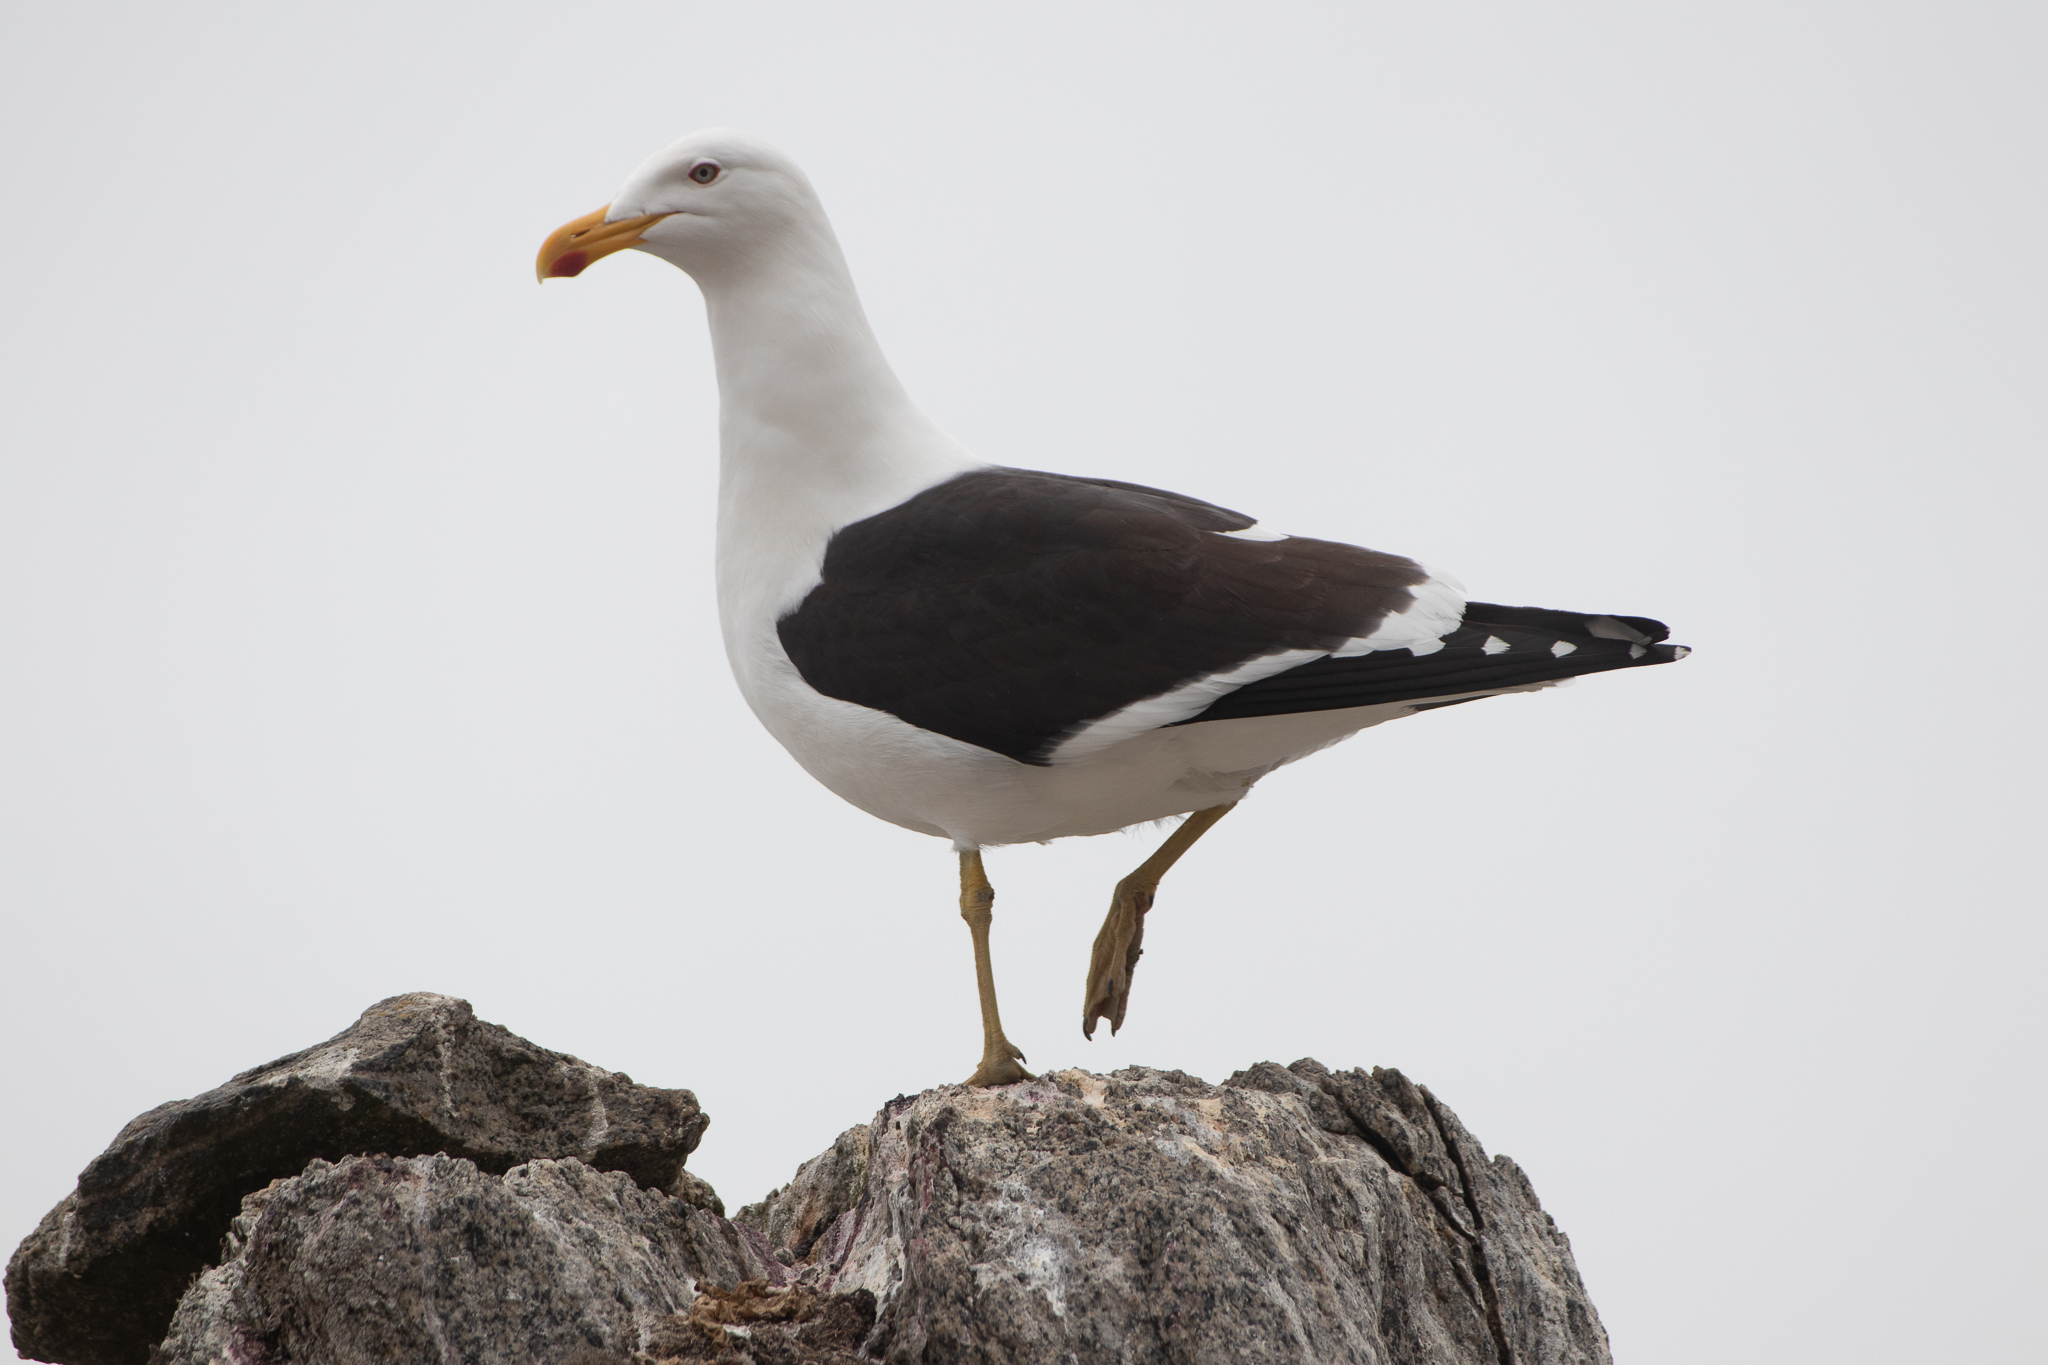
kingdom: Animalia
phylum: Chordata
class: Aves
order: Charadriiformes
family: Laridae
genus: Larus
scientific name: Larus dominicanus
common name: Kelp gull
